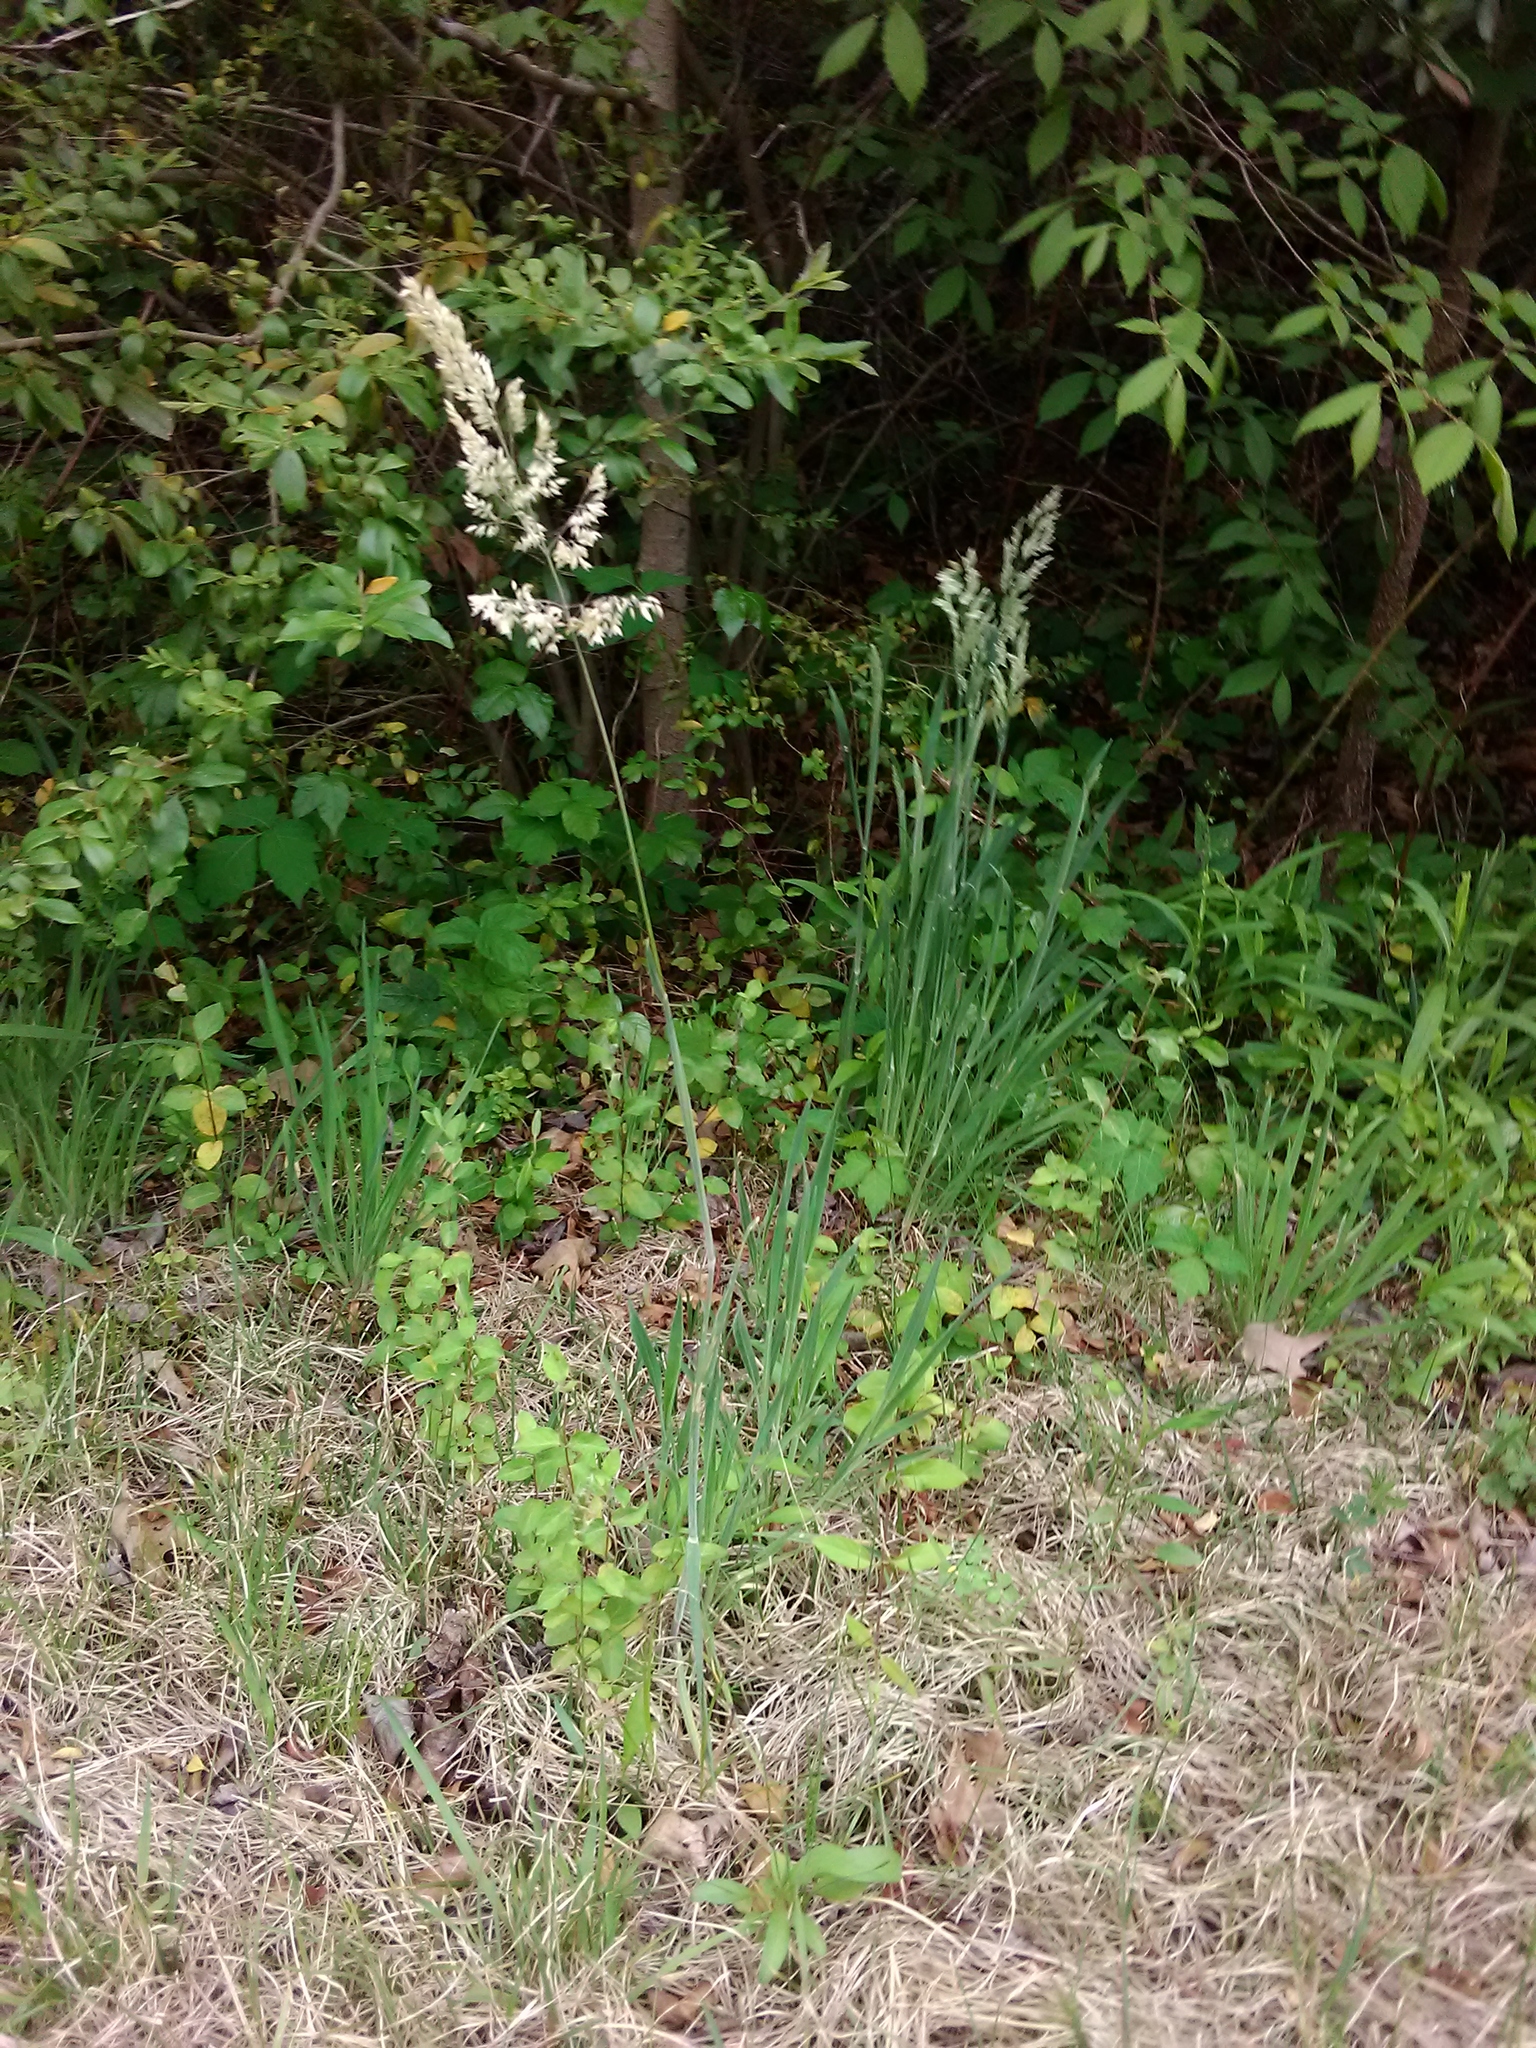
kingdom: Plantae
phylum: Tracheophyta
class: Liliopsida
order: Poales
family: Poaceae
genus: Holcus
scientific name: Holcus lanatus
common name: Yorkshire-fog
